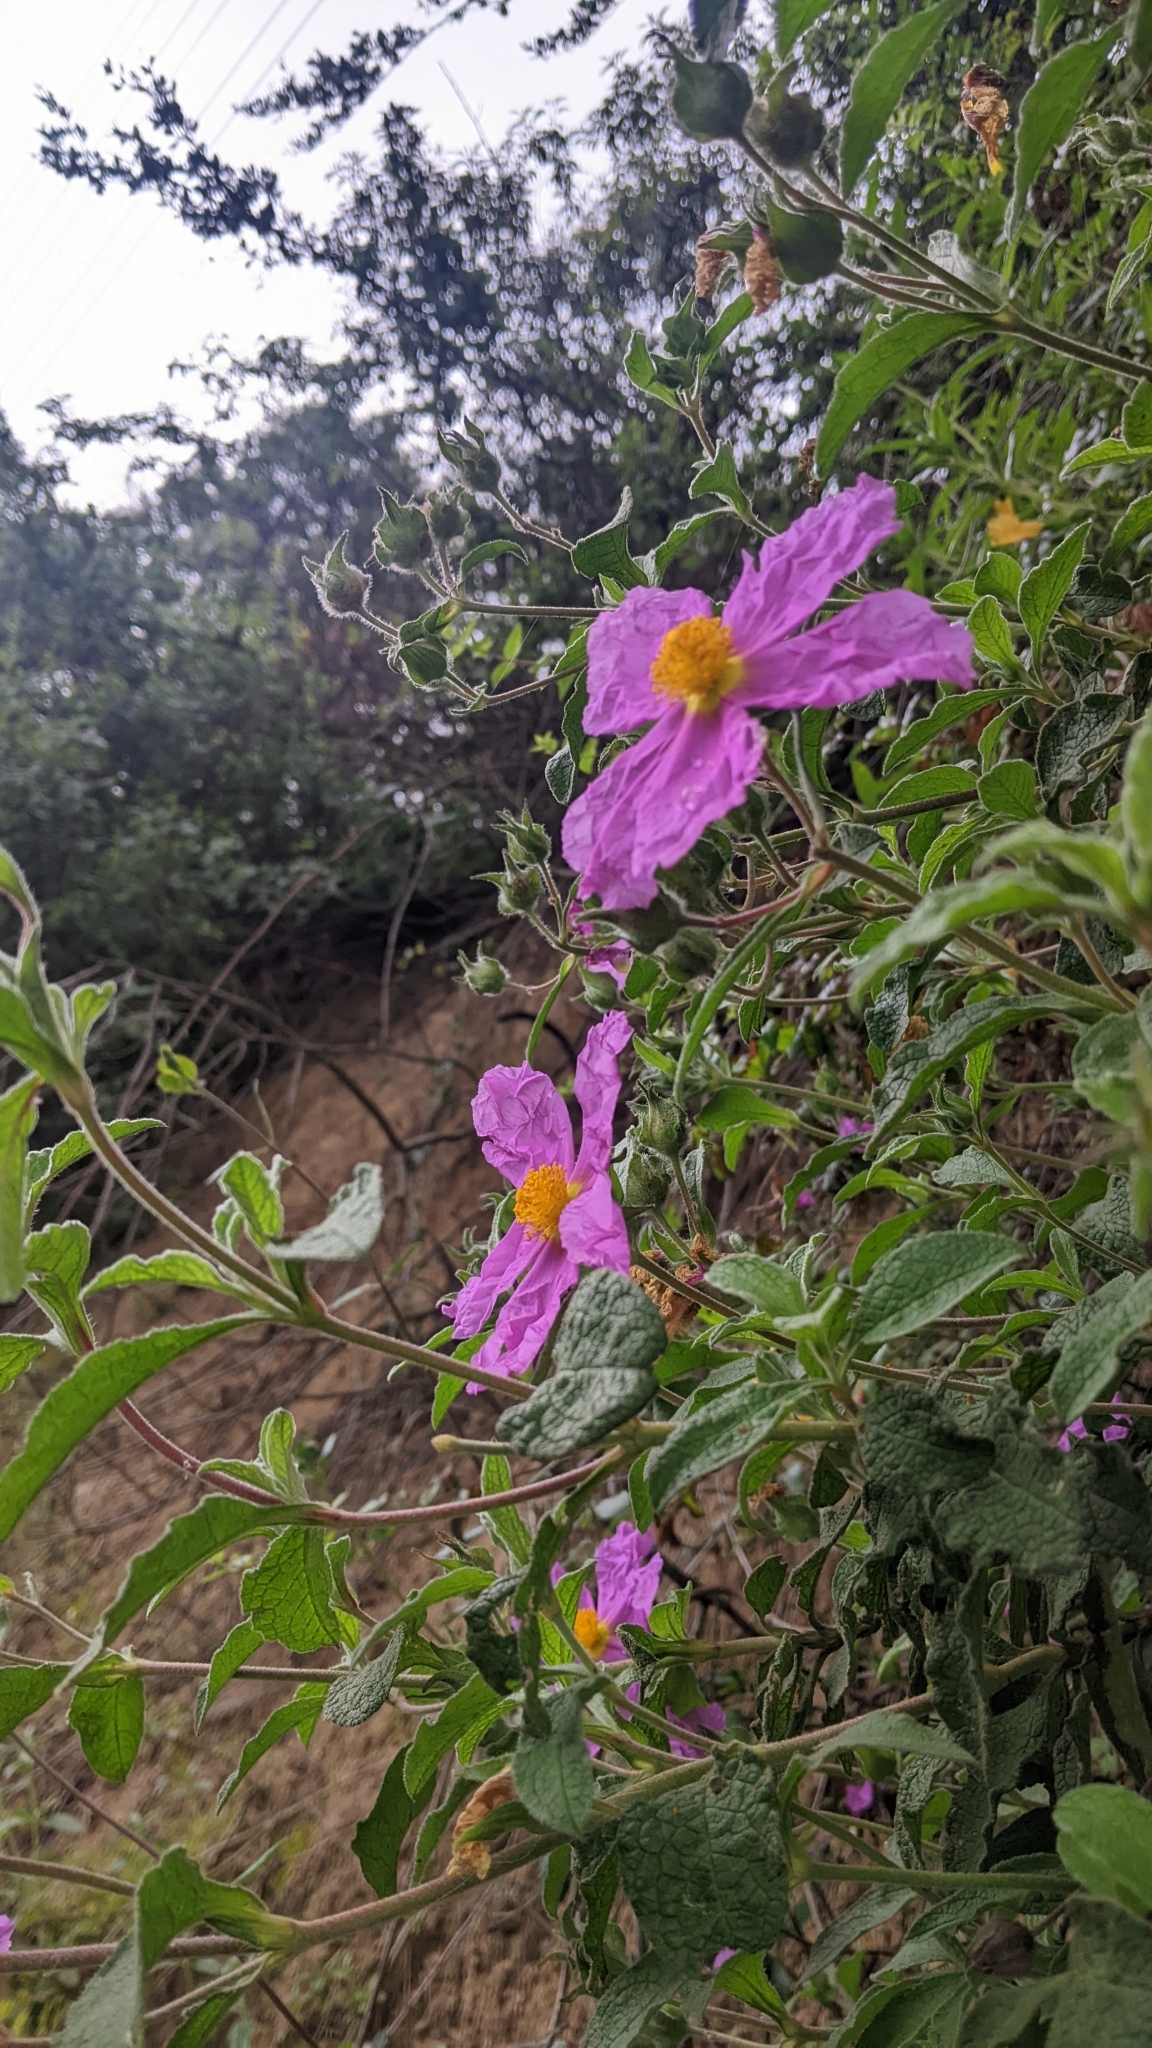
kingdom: Plantae
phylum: Tracheophyta
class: Magnoliopsida
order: Malvales
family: Cistaceae
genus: Cistus
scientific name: Cistus creticus
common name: Cretan rockrose
